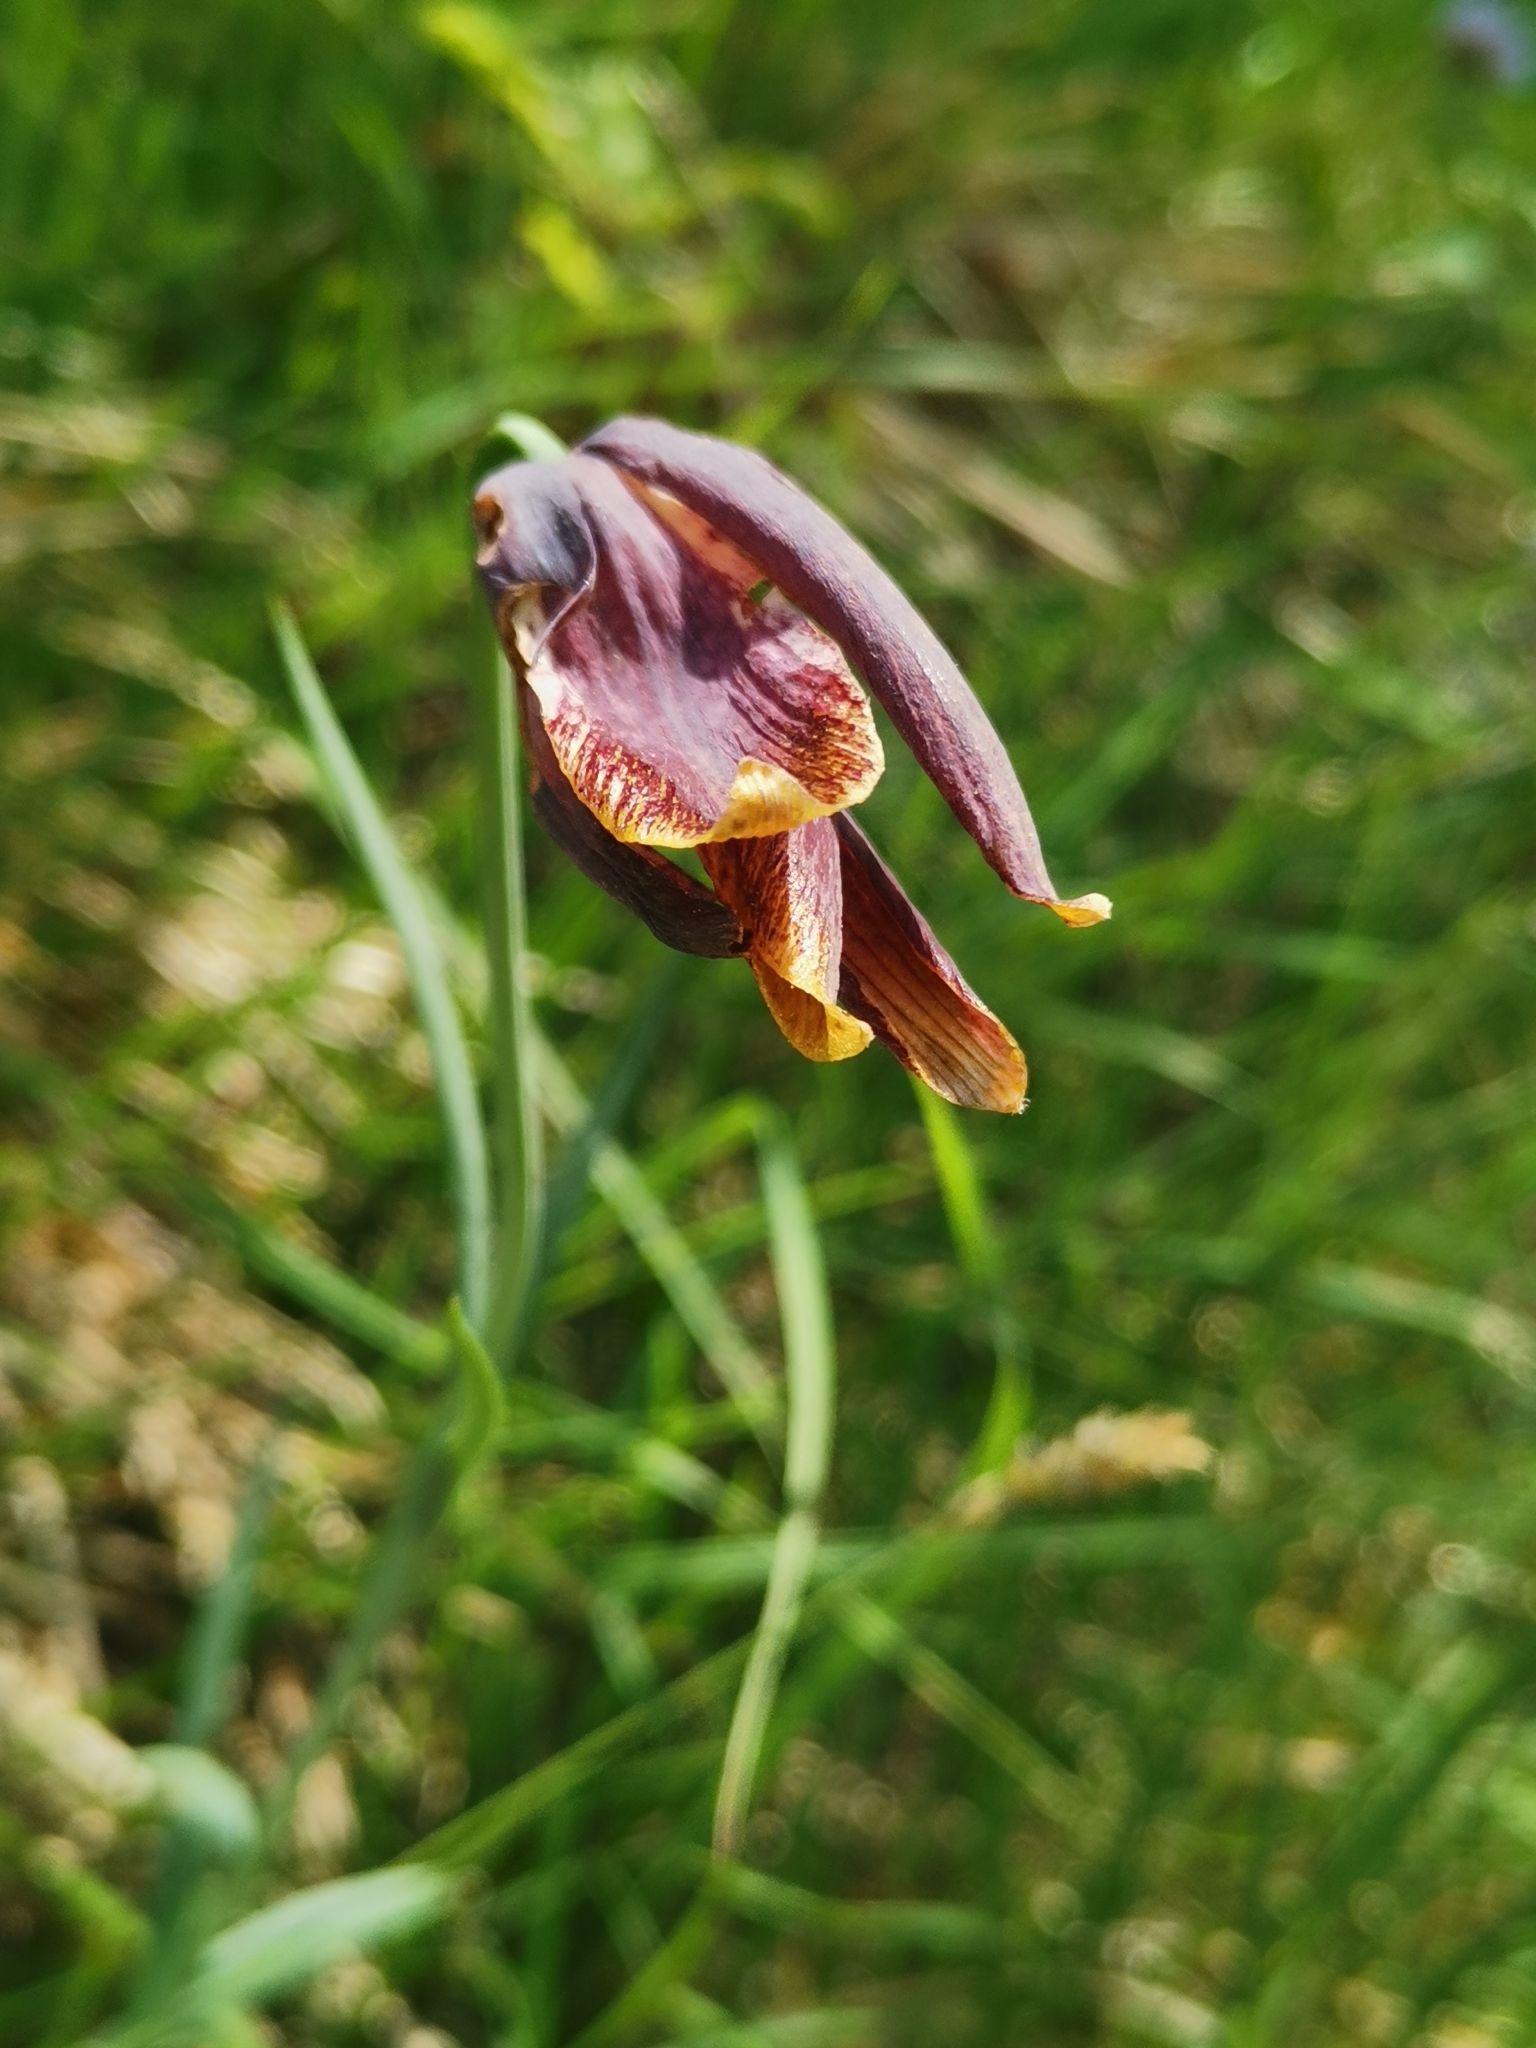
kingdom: Plantae
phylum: Tracheophyta
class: Liliopsida
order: Liliales
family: Liliaceae
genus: Fritillaria
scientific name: Fritillaria pyrenaica
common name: Pyrenean snake's-head
